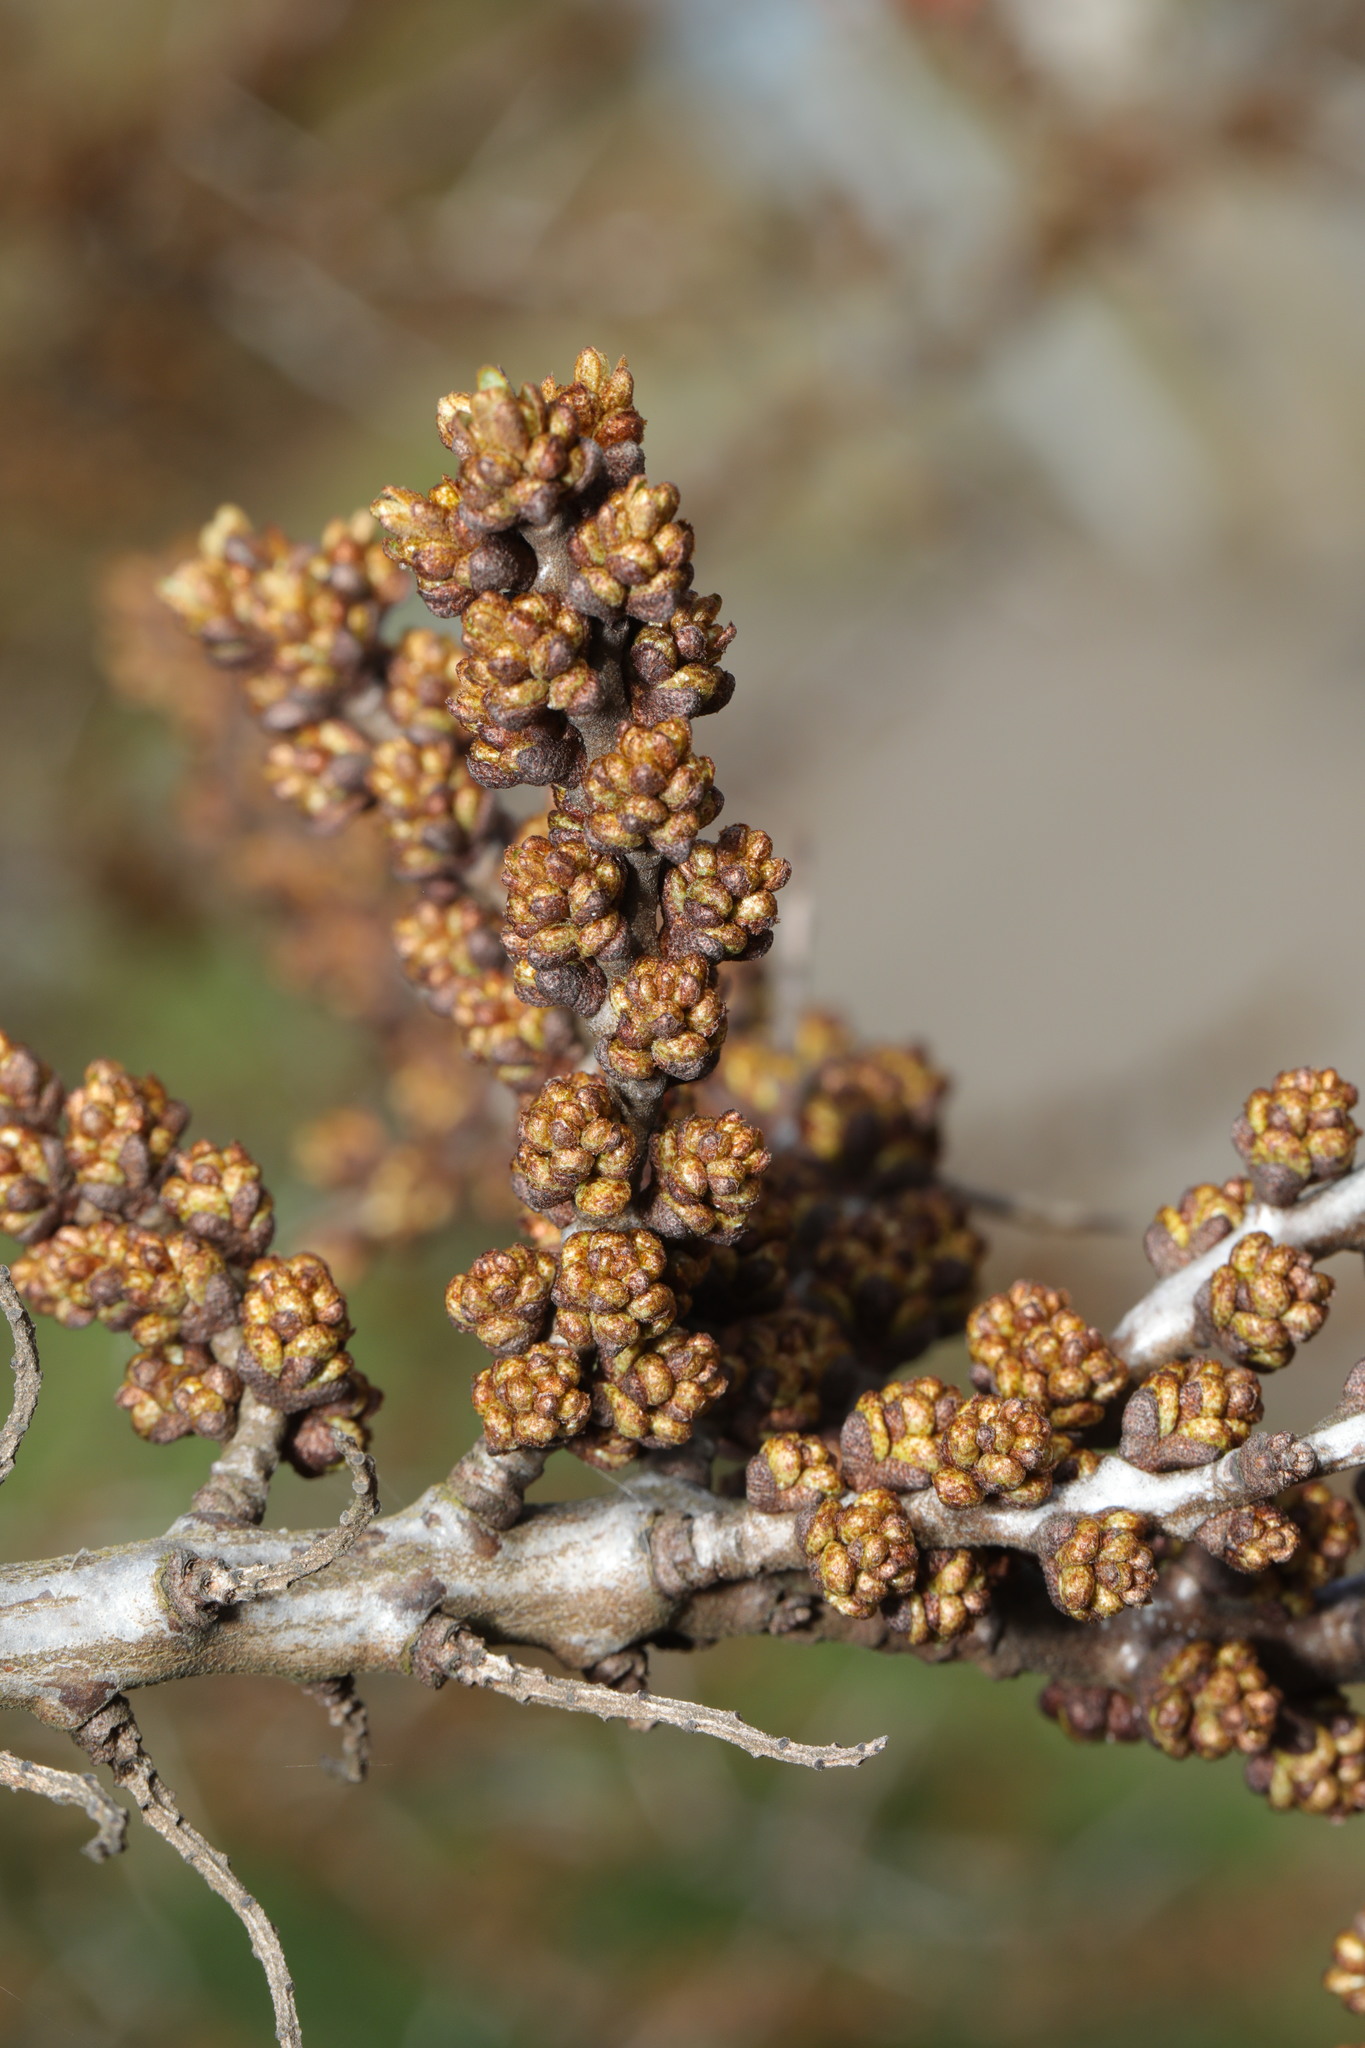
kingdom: Plantae
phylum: Tracheophyta
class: Magnoliopsida
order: Rosales
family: Elaeagnaceae
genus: Hippophae
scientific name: Hippophae rhamnoides
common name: Sea-buckthorn
